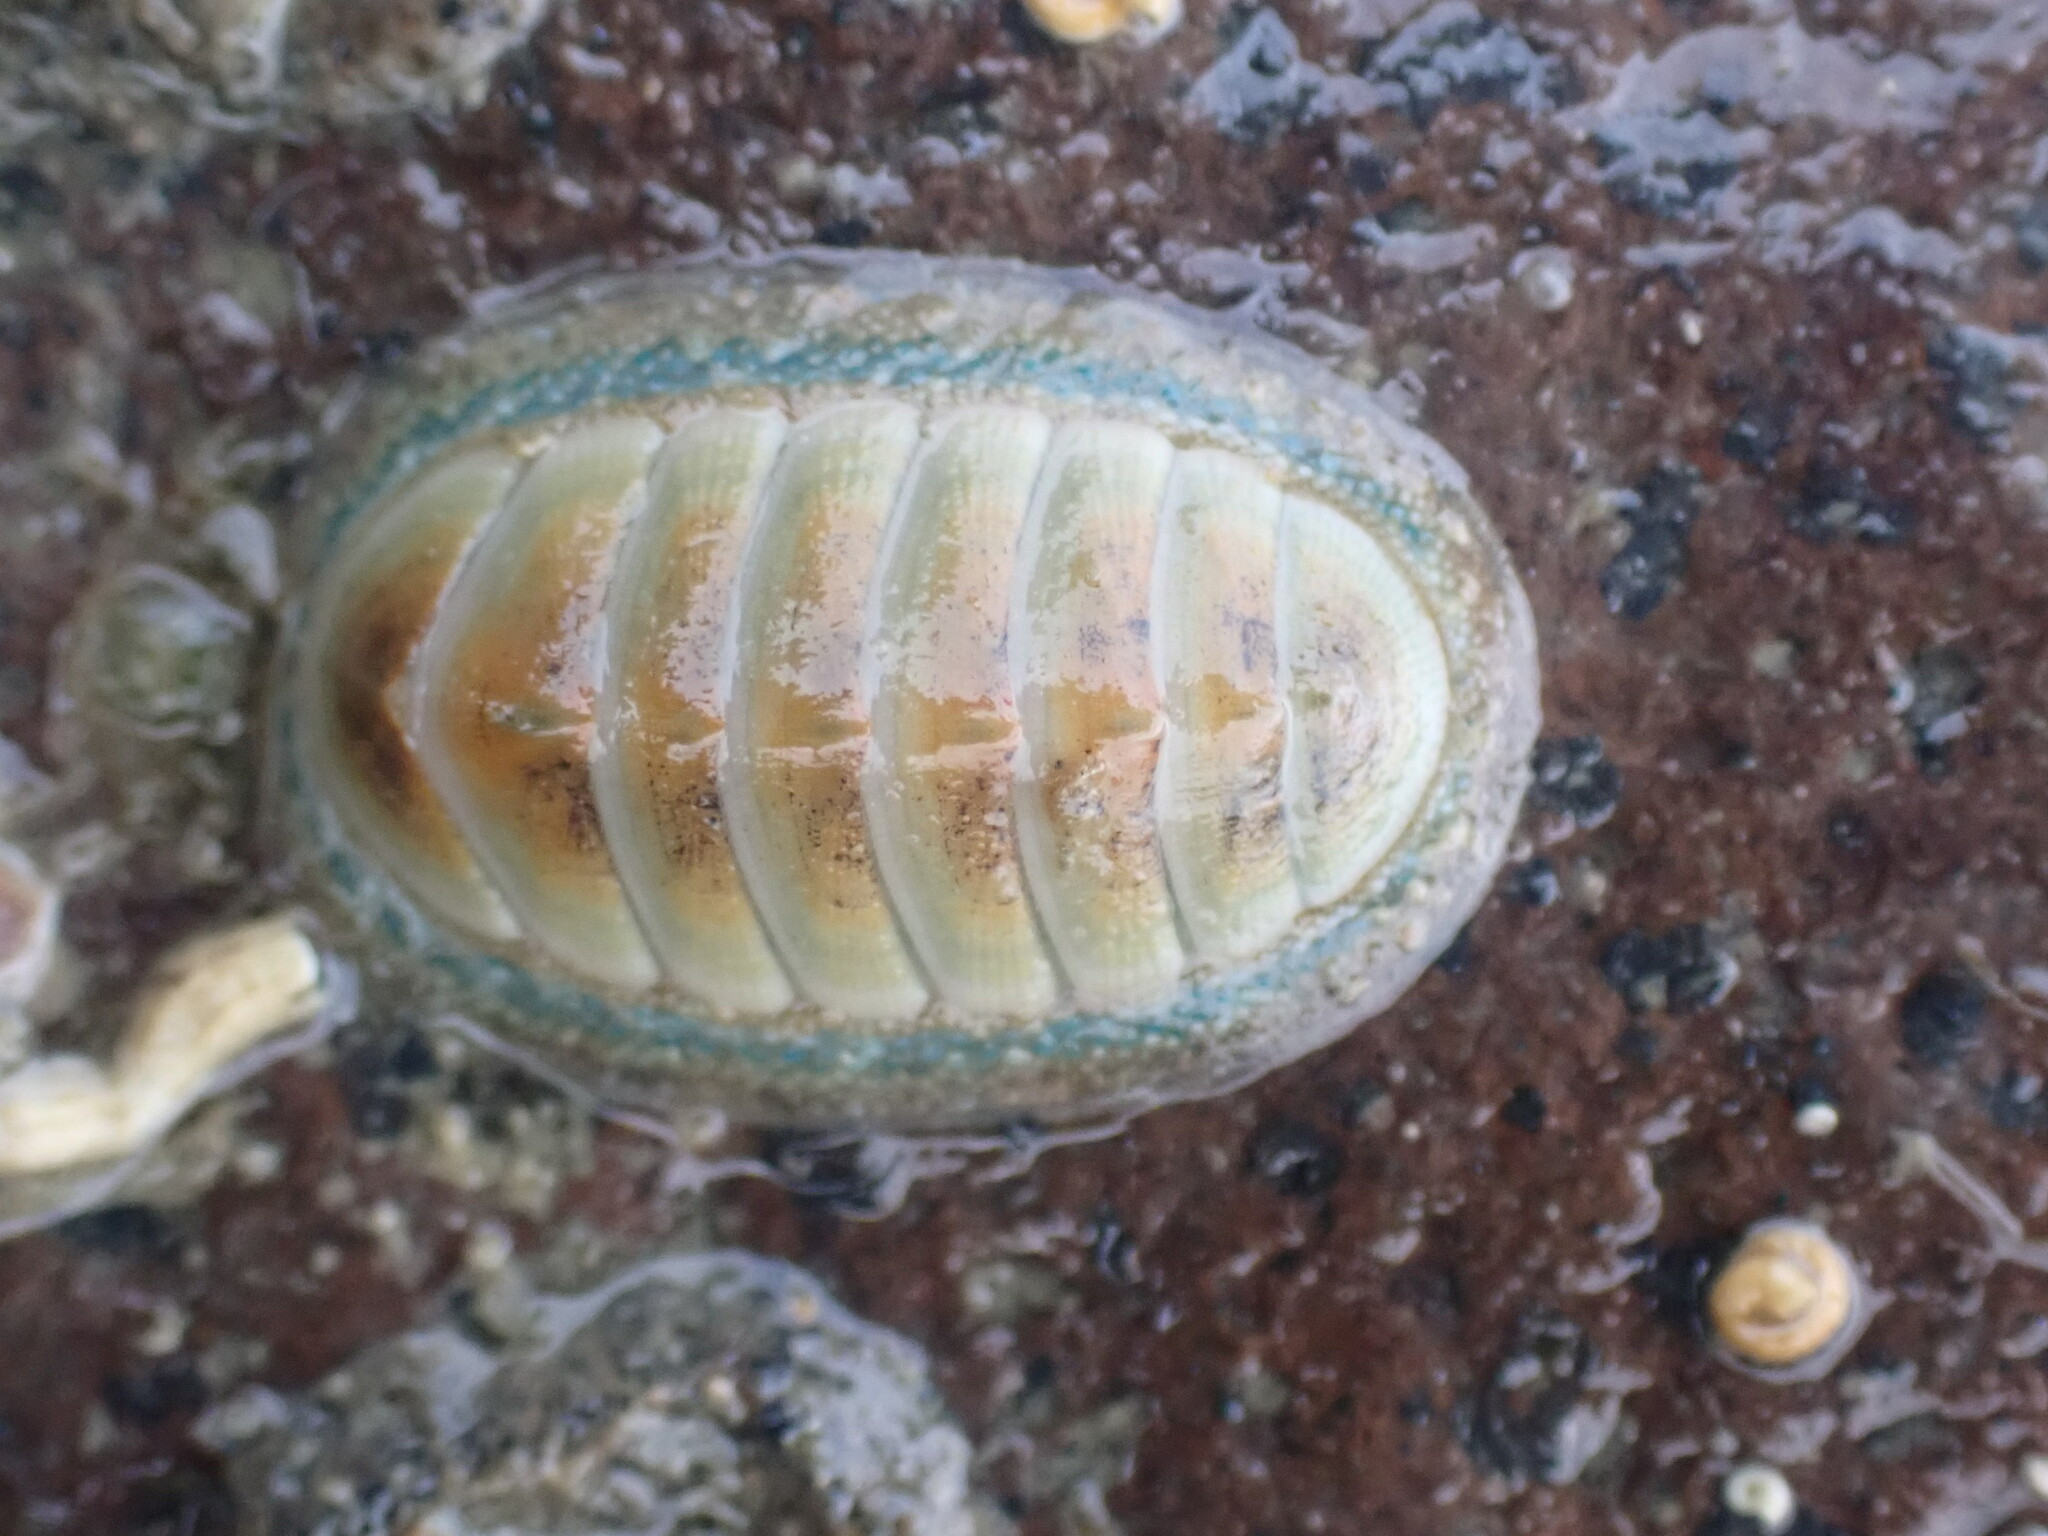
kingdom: Animalia
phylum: Mollusca
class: Polyplacophora
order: Chitonida
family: Chitonidae
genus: Chiton
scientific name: Chiton glaucus
